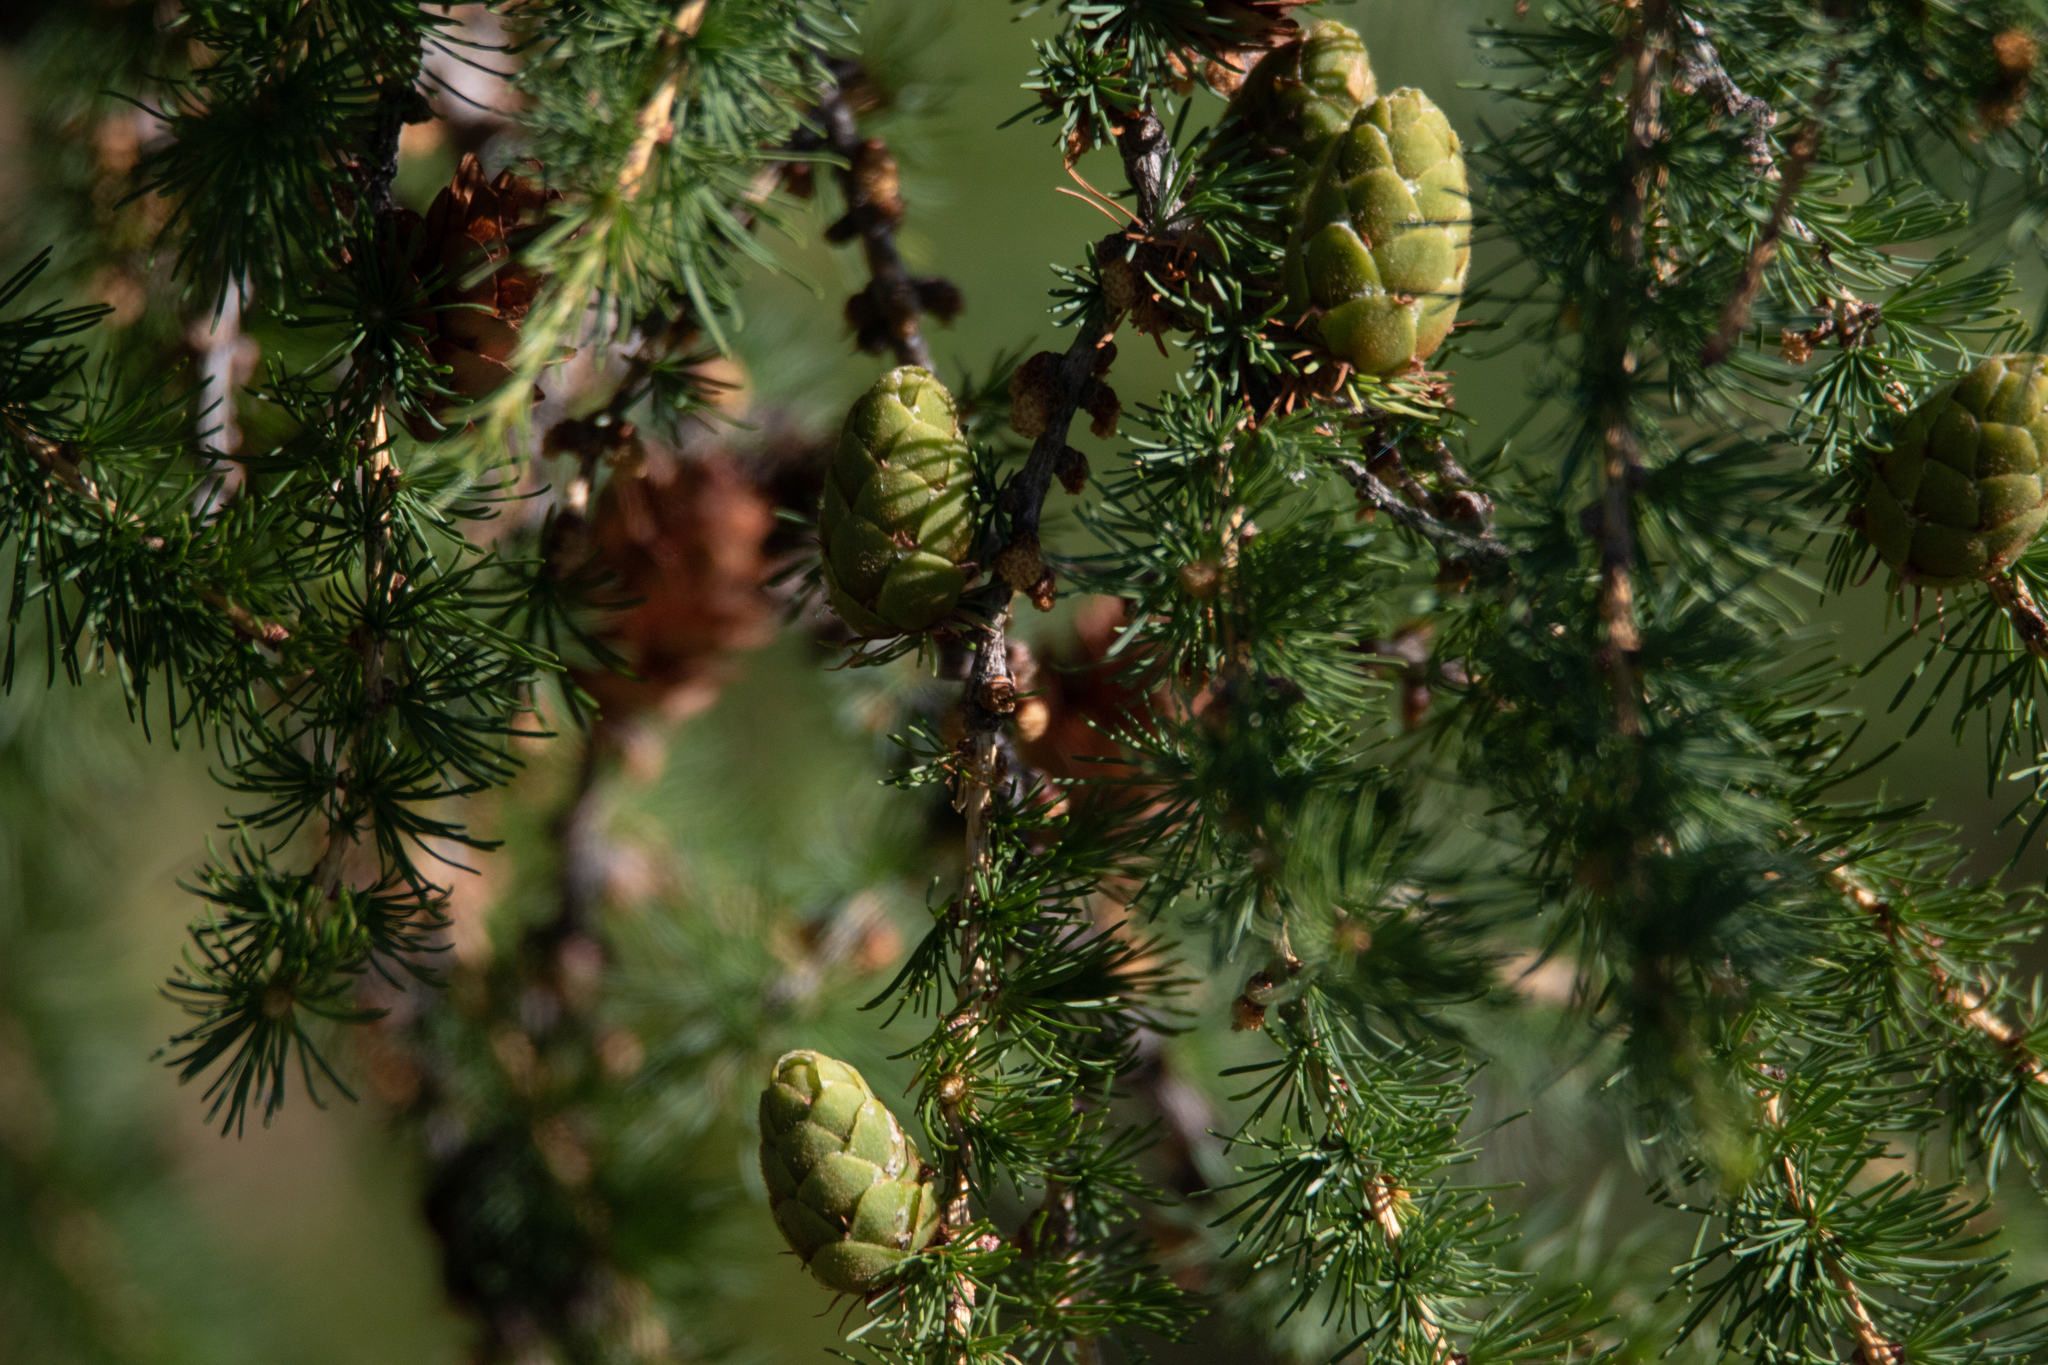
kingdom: Plantae
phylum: Tracheophyta
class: Pinopsida
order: Pinales
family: Pinaceae
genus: Larix
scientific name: Larix sibirica
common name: Siberian larch
